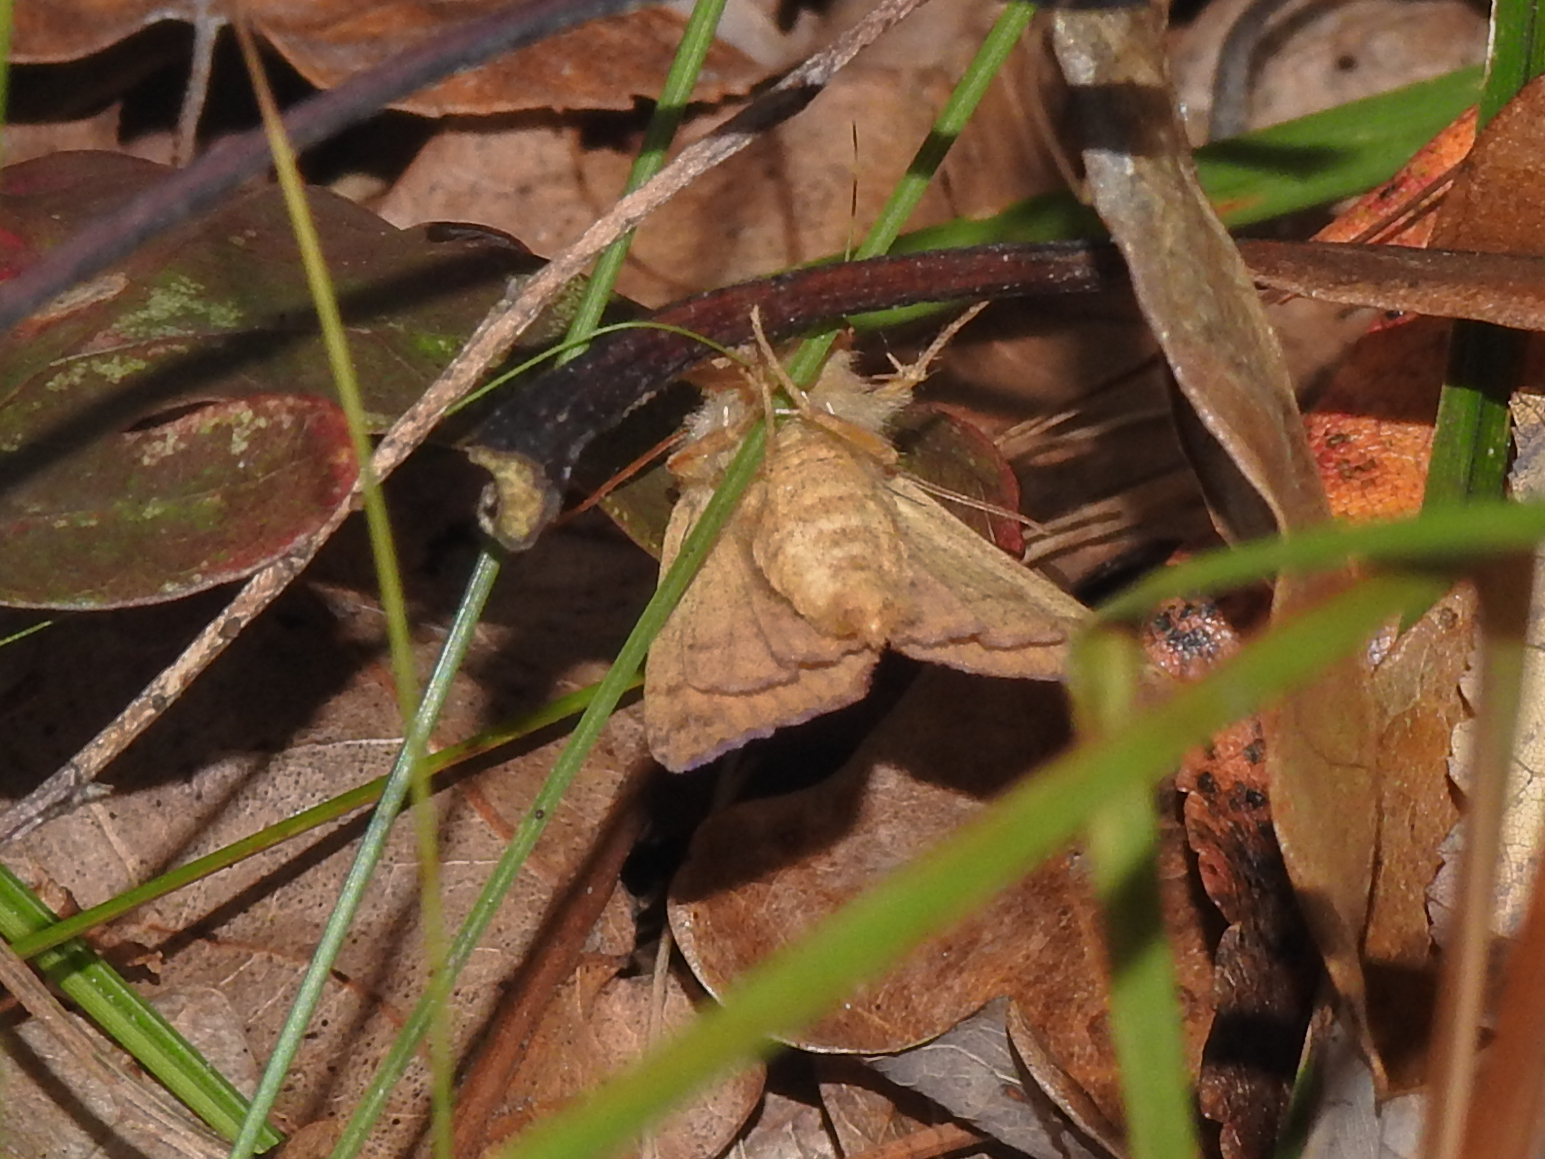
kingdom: Animalia
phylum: Arthropoda
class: Insecta
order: Lepidoptera
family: Noctuidae
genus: Agrochola
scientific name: Agrochola bicolorago
